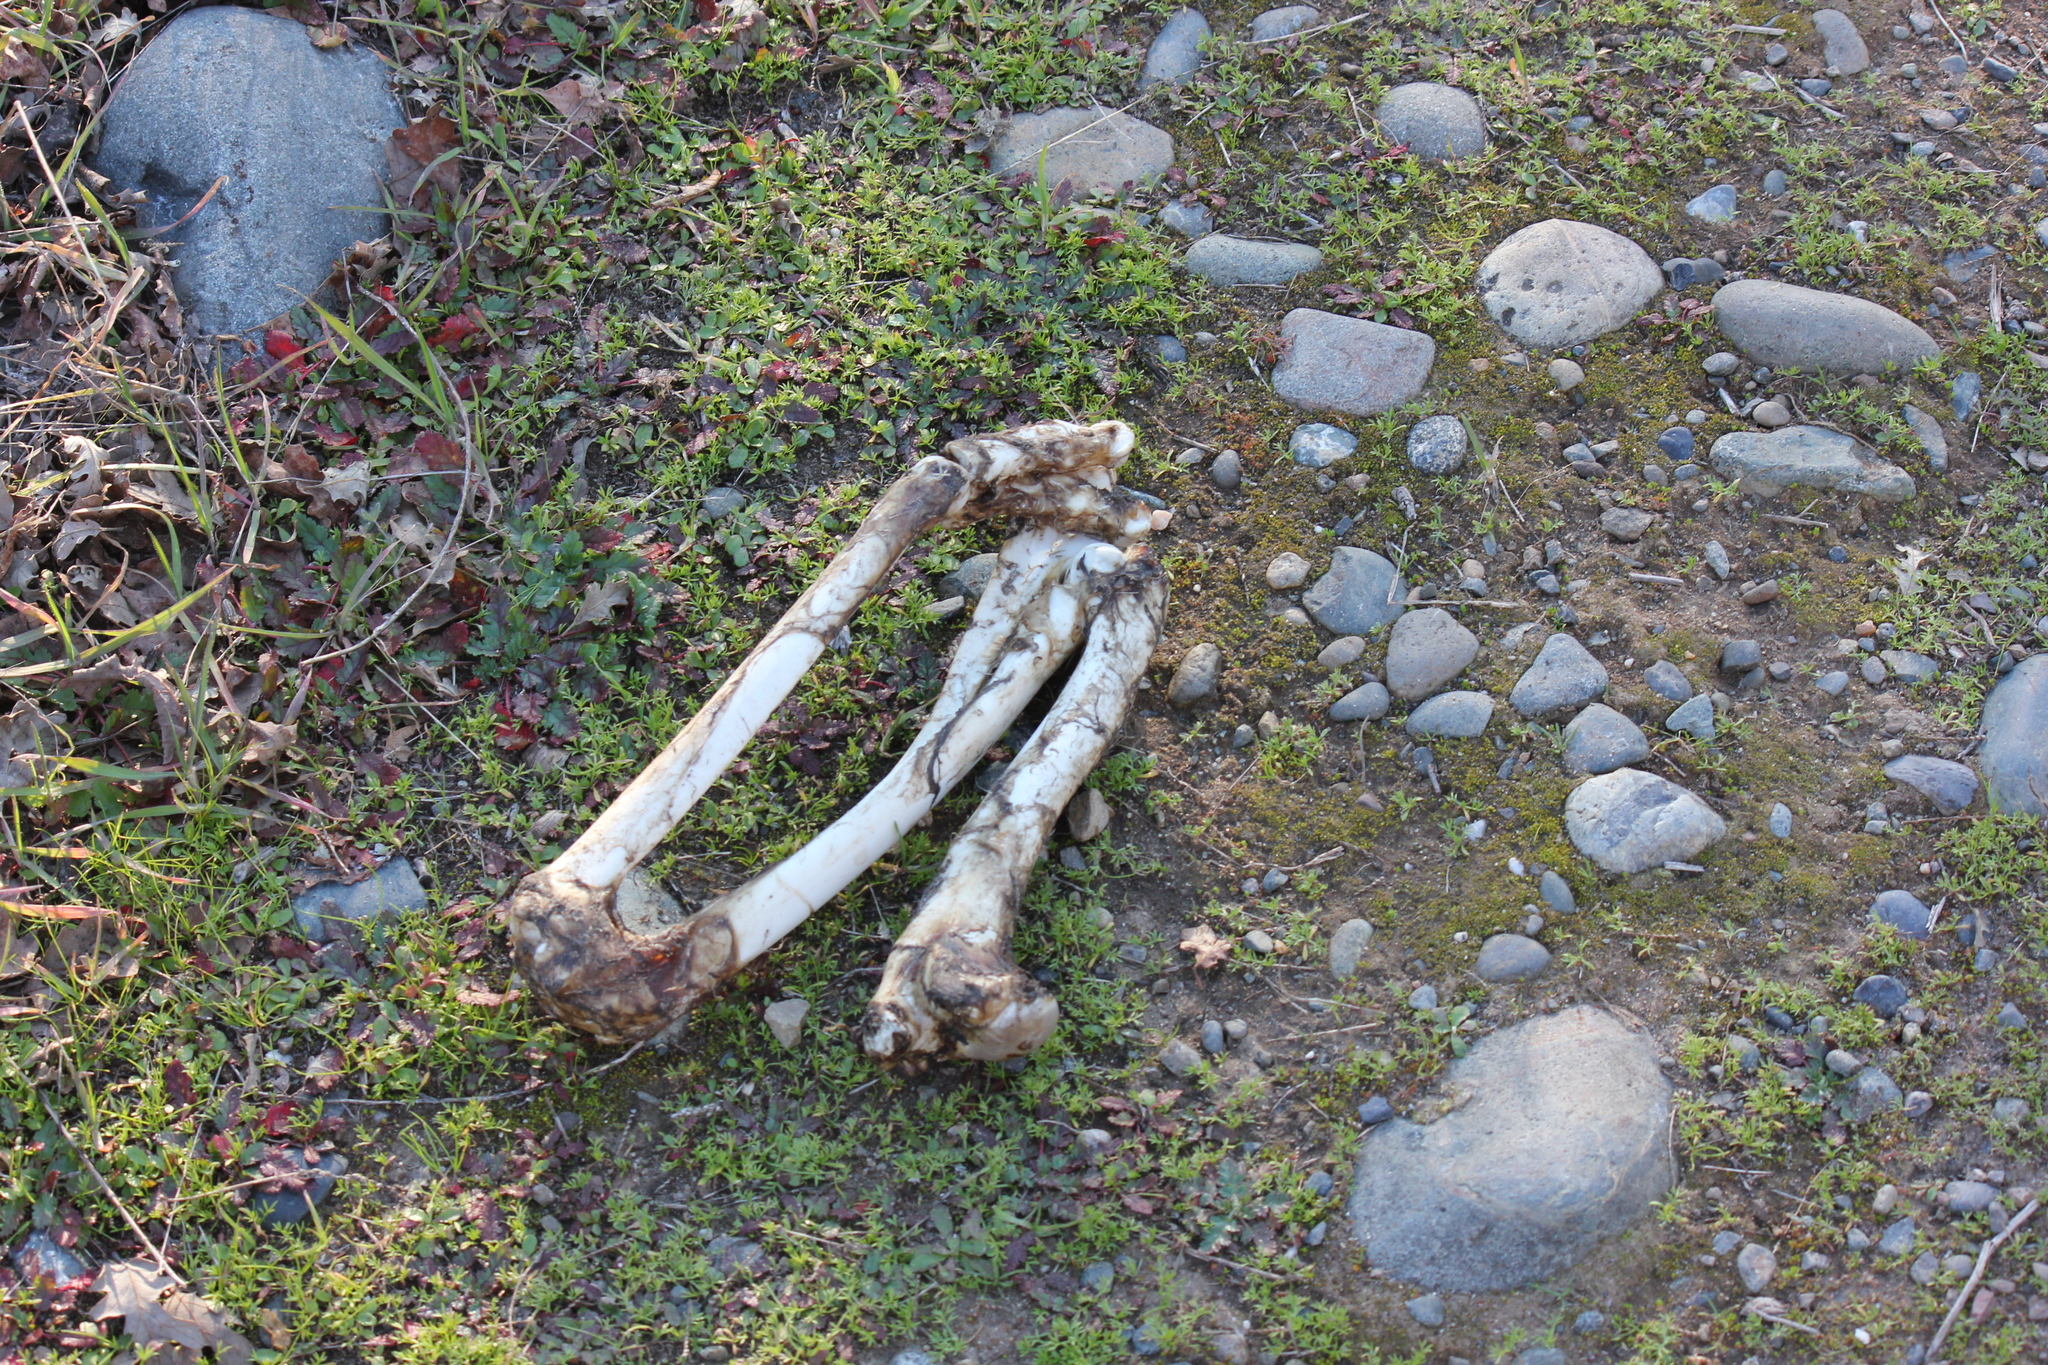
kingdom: Animalia
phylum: Chordata
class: Mammalia
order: Artiodactyla
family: Cervidae
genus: Odocoileus
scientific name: Odocoileus hemionus
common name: Mule deer
